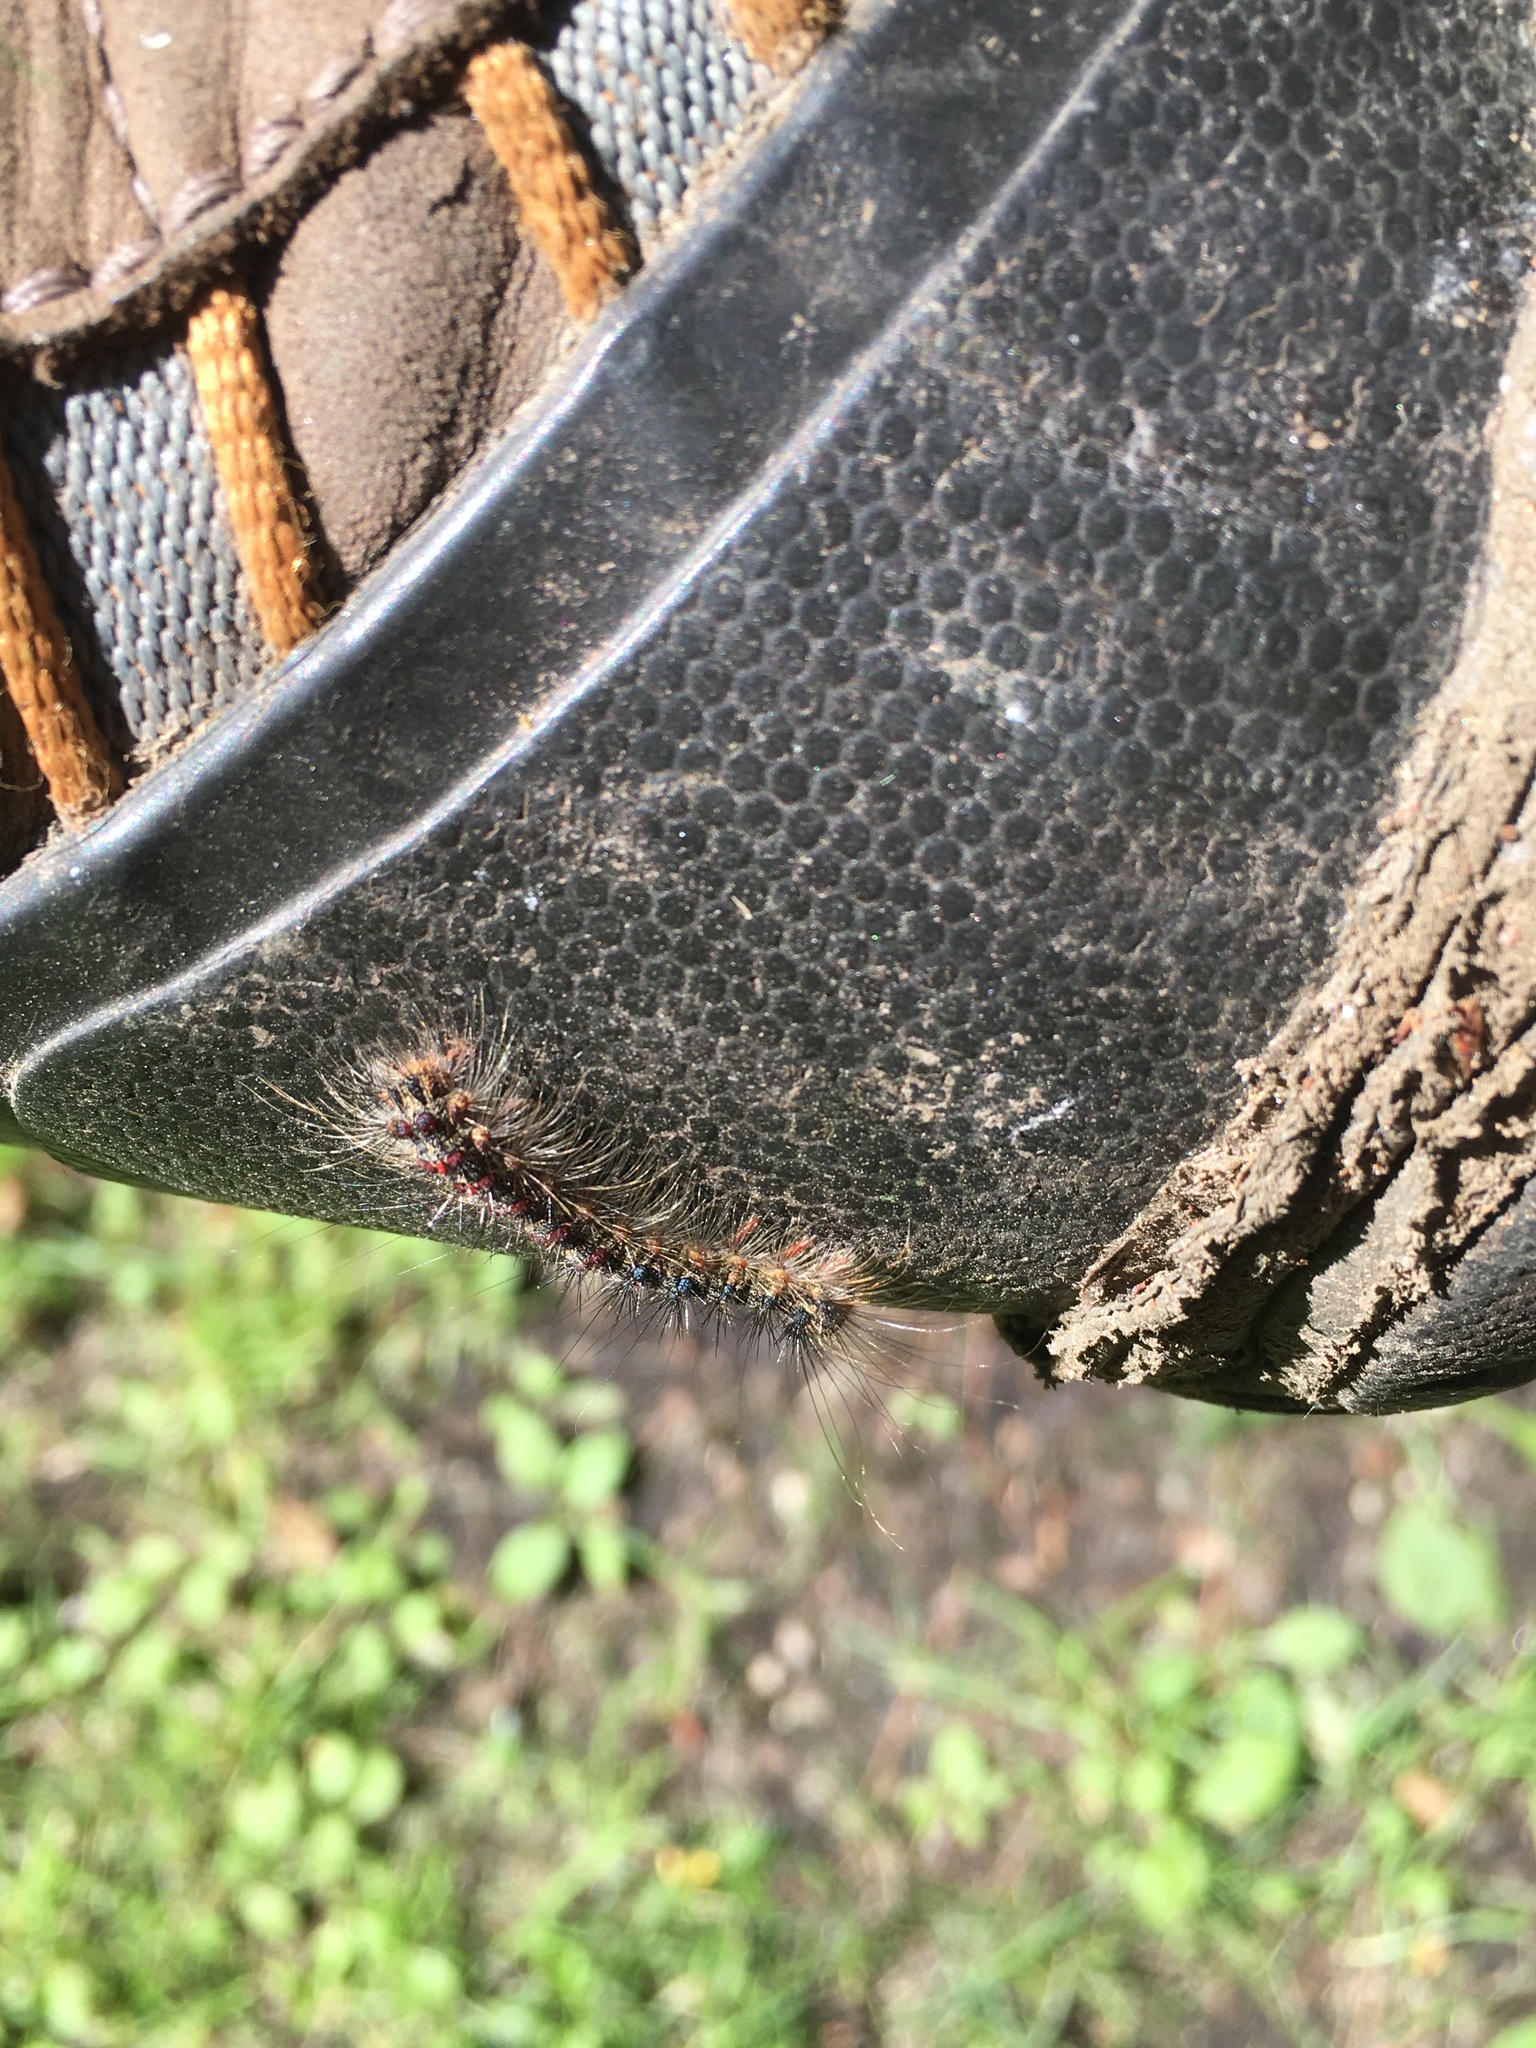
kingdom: Animalia
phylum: Arthropoda
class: Insecta
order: Lepidoptera
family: Erebidae
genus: Lymantria
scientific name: Lymantria dispar
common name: Gypsy moth
